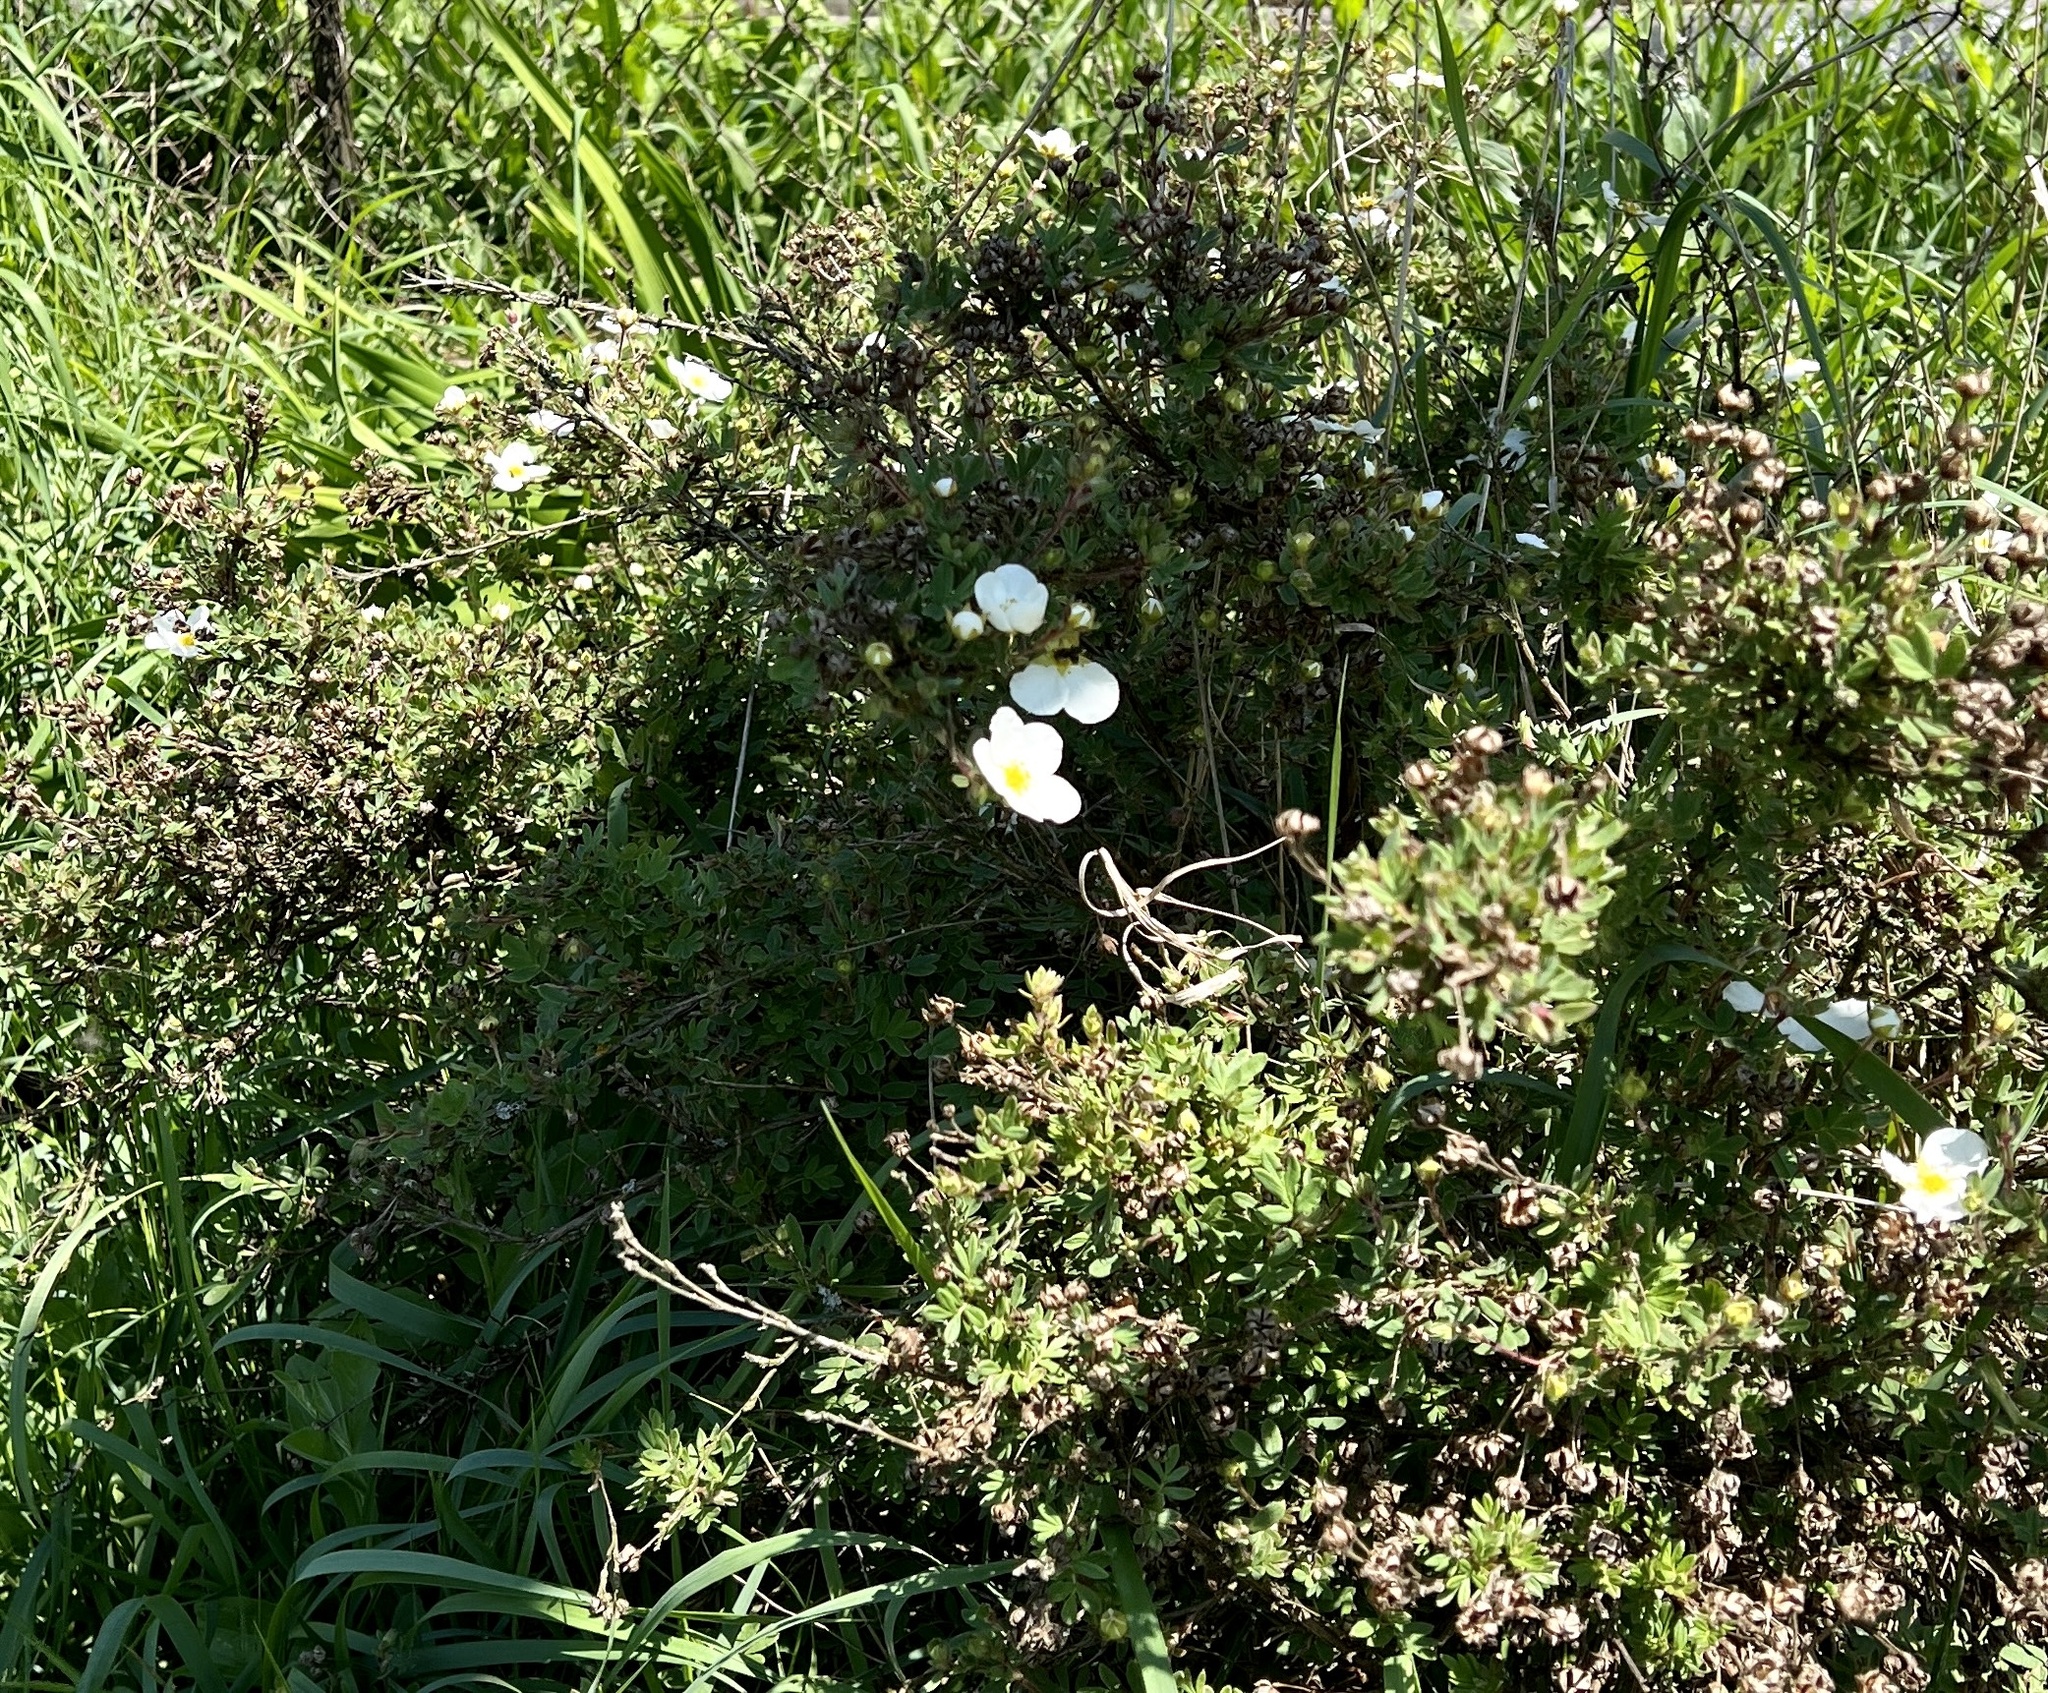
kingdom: Plantae
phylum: Tracheophyta
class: Magnoliopsida
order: Rosales
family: Rosaceae
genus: Dasiphora
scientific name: Dasiphora fruticosa
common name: Shrubby cinquefoil
